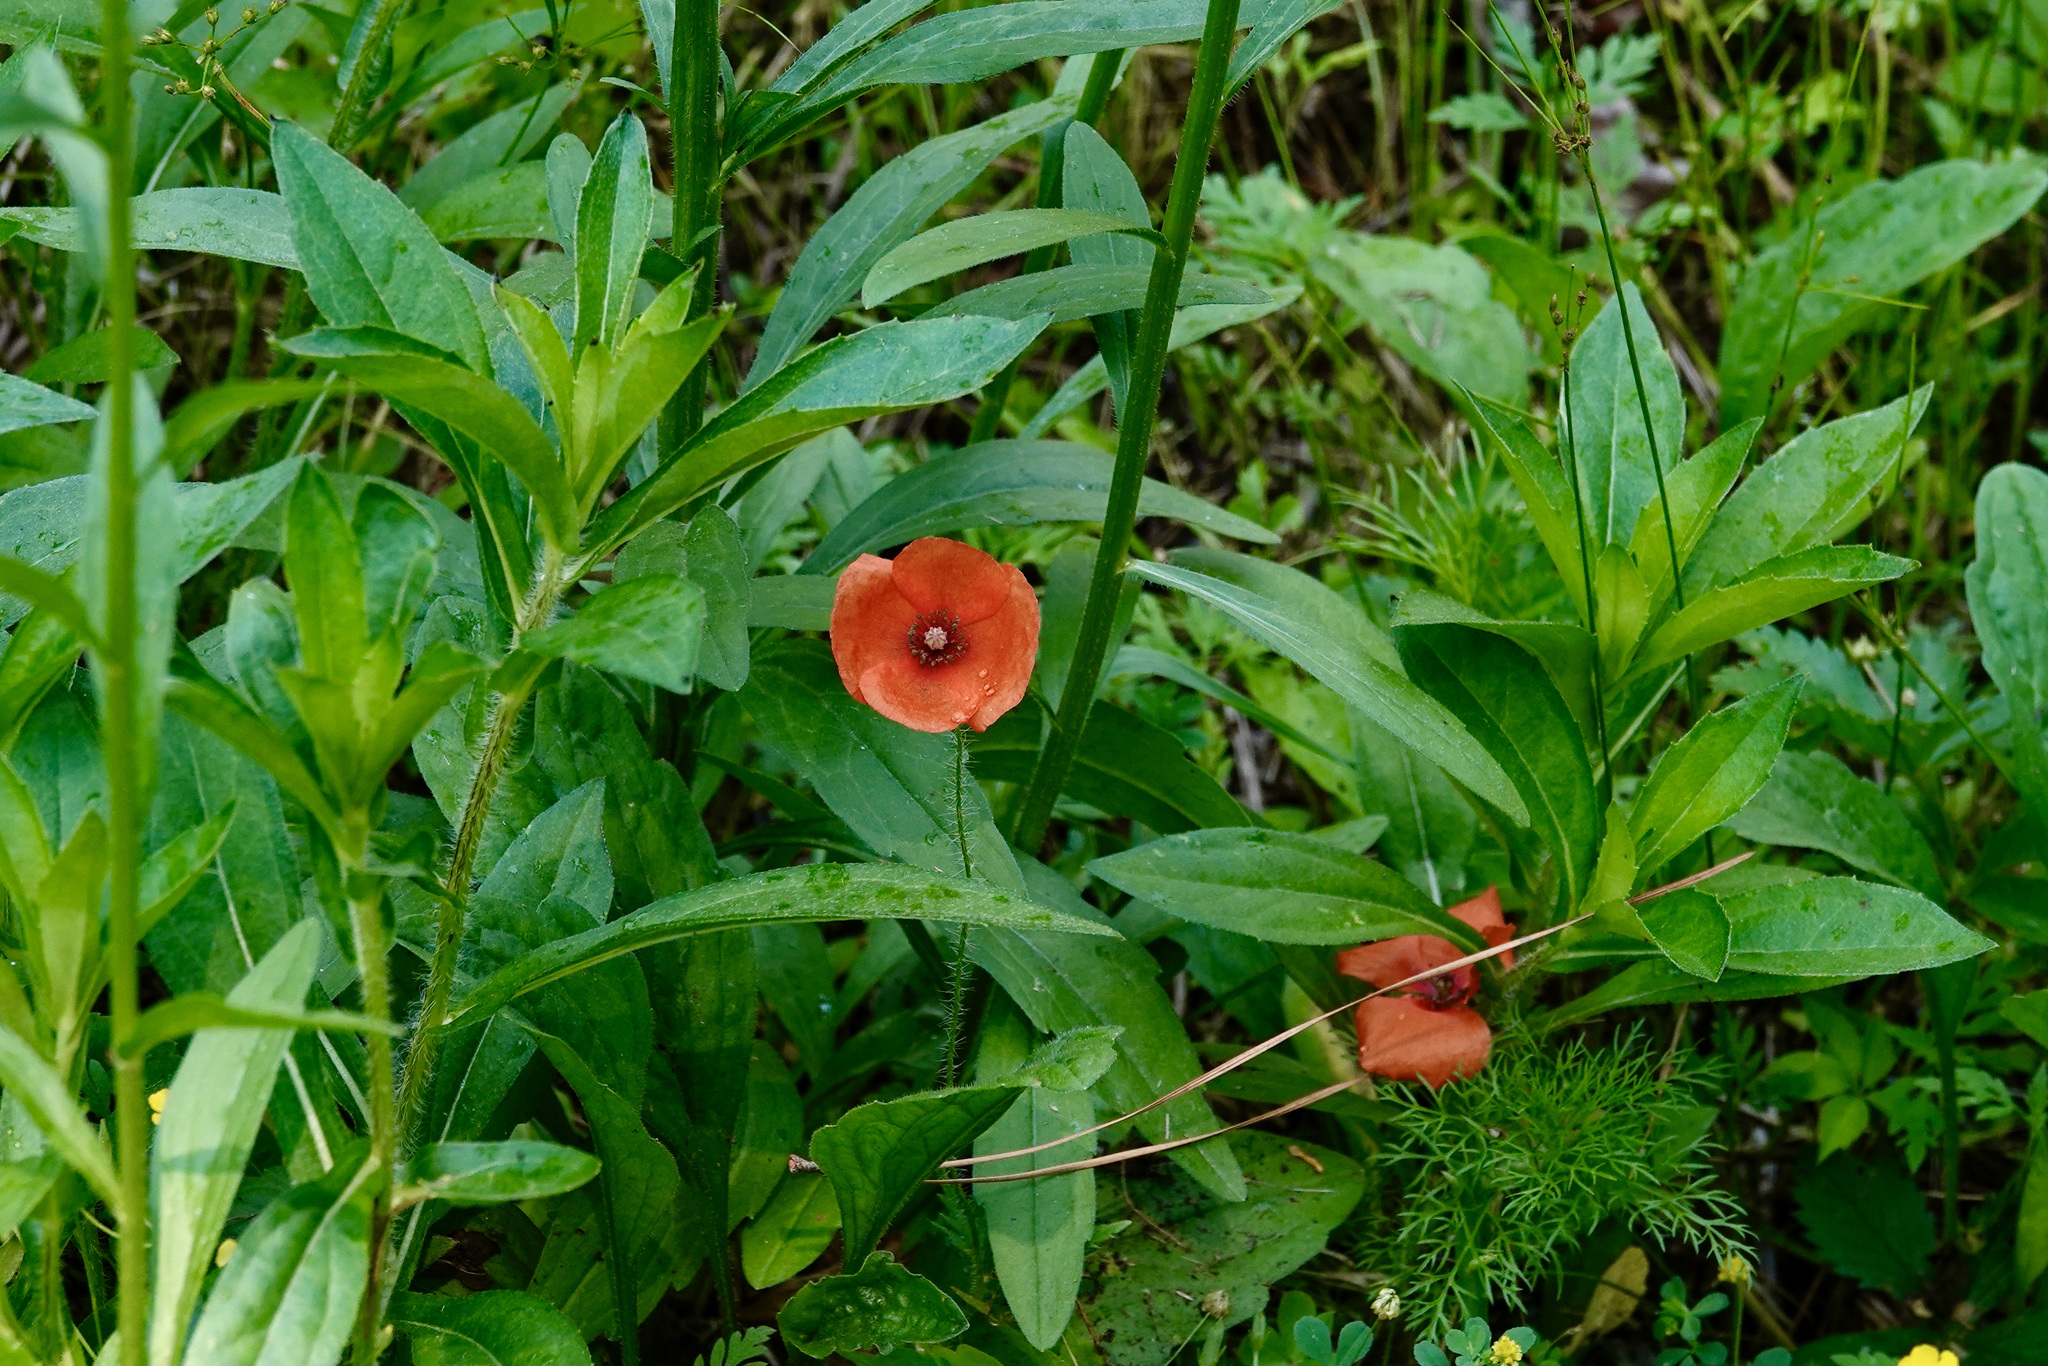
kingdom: Plantae
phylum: Tracheophyta
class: Magnoliopsida
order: Ranunculales
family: Papaveraceae
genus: Papaver
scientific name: Papaver dubium
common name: Long-headed poppy
